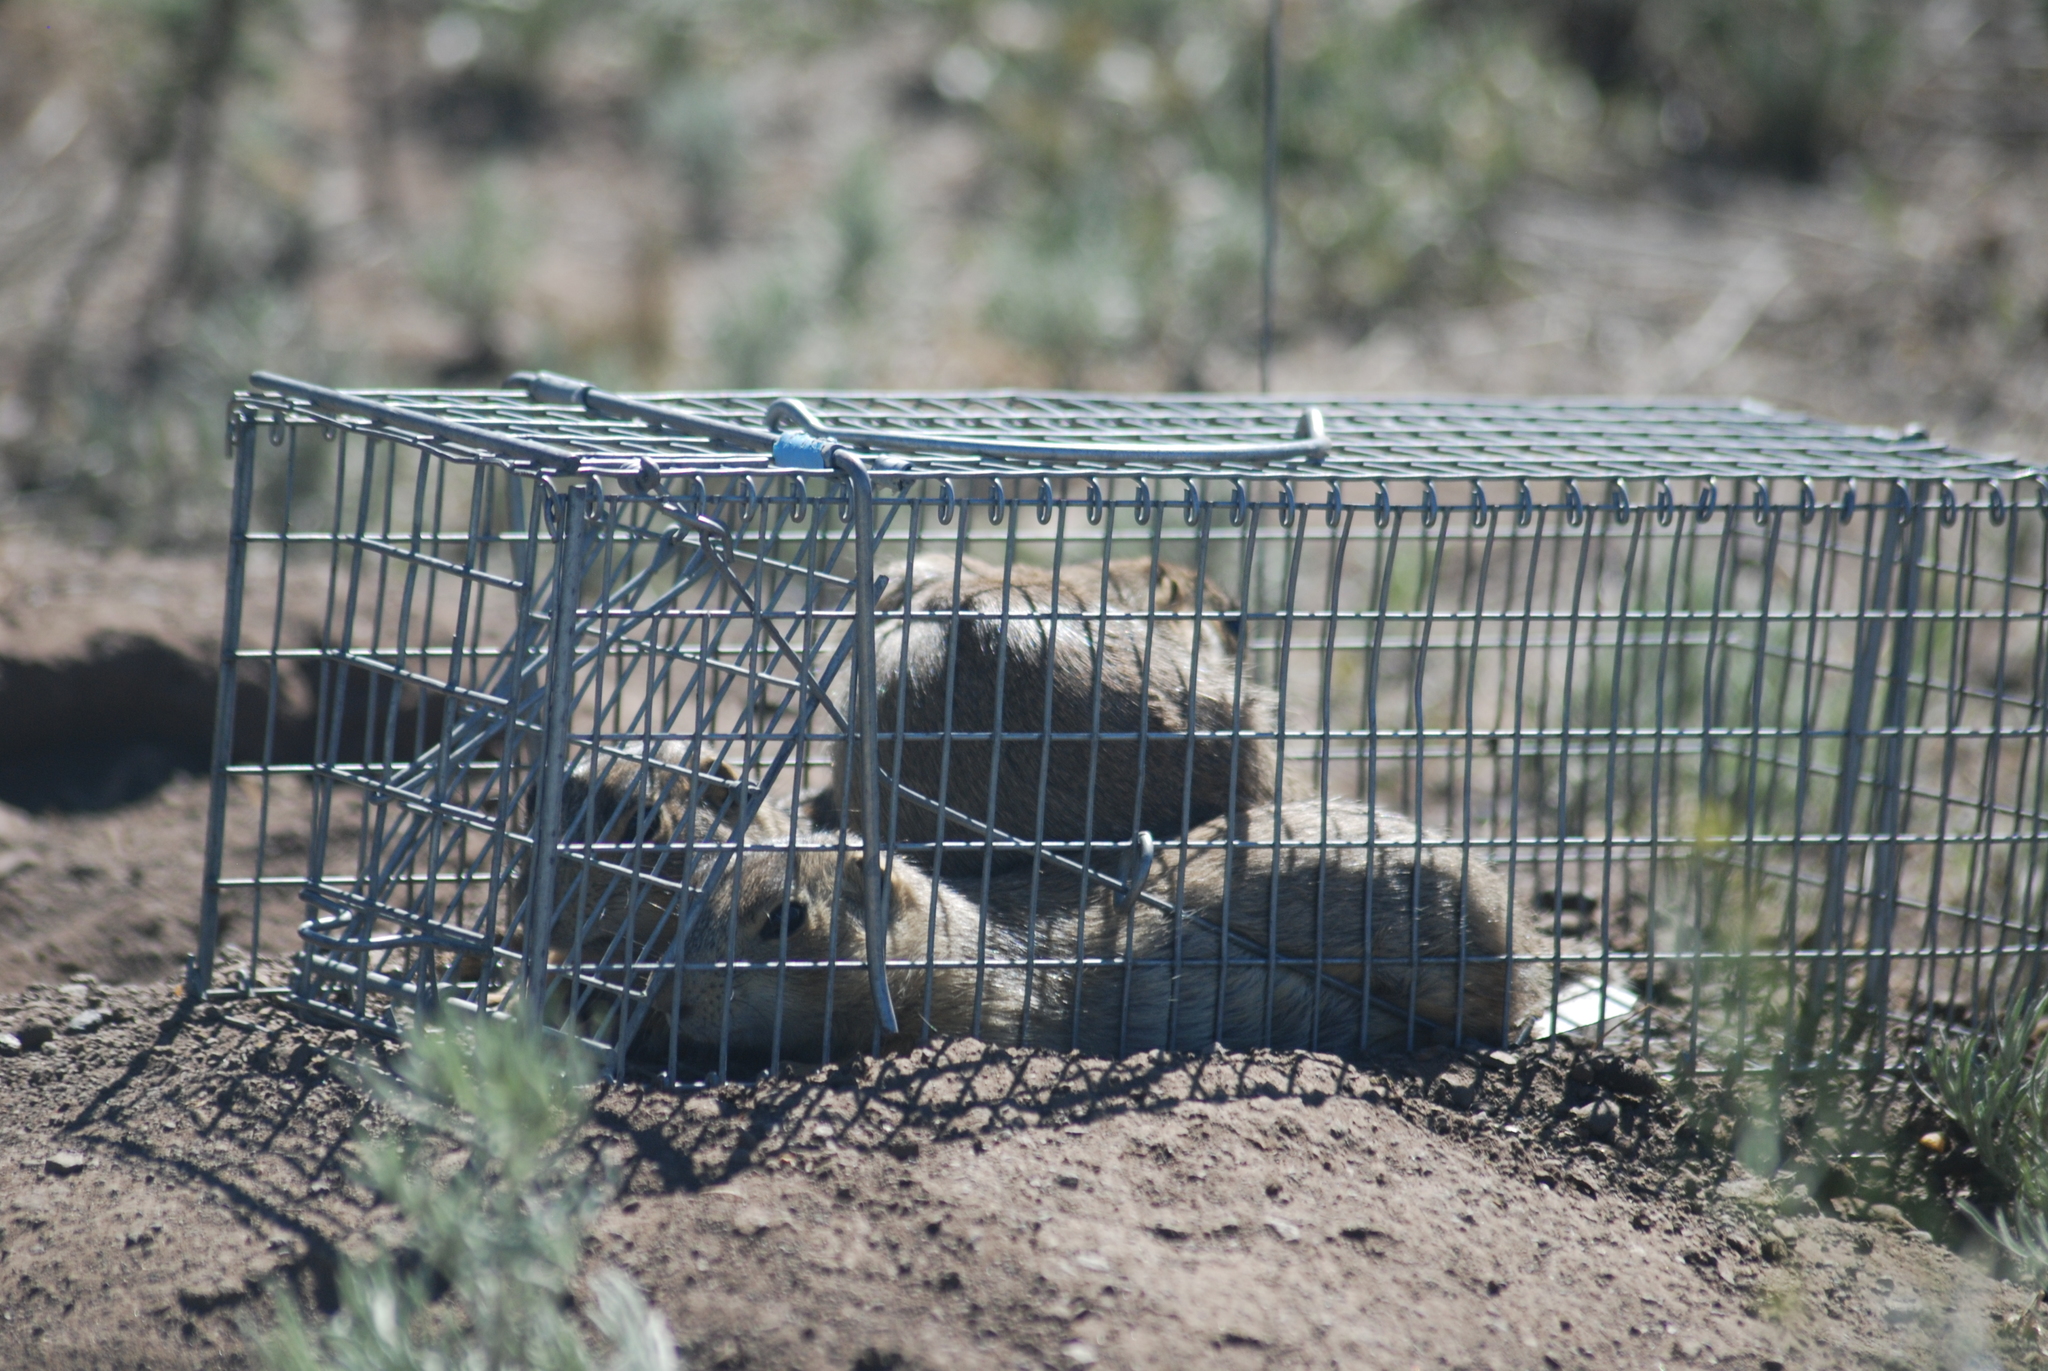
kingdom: Animalia
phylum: Chordata
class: Mammalia
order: Rodentia
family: Sciuridae
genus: Cynomys
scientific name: Cynomys gunnisoni
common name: Gunnison's prairie dog
